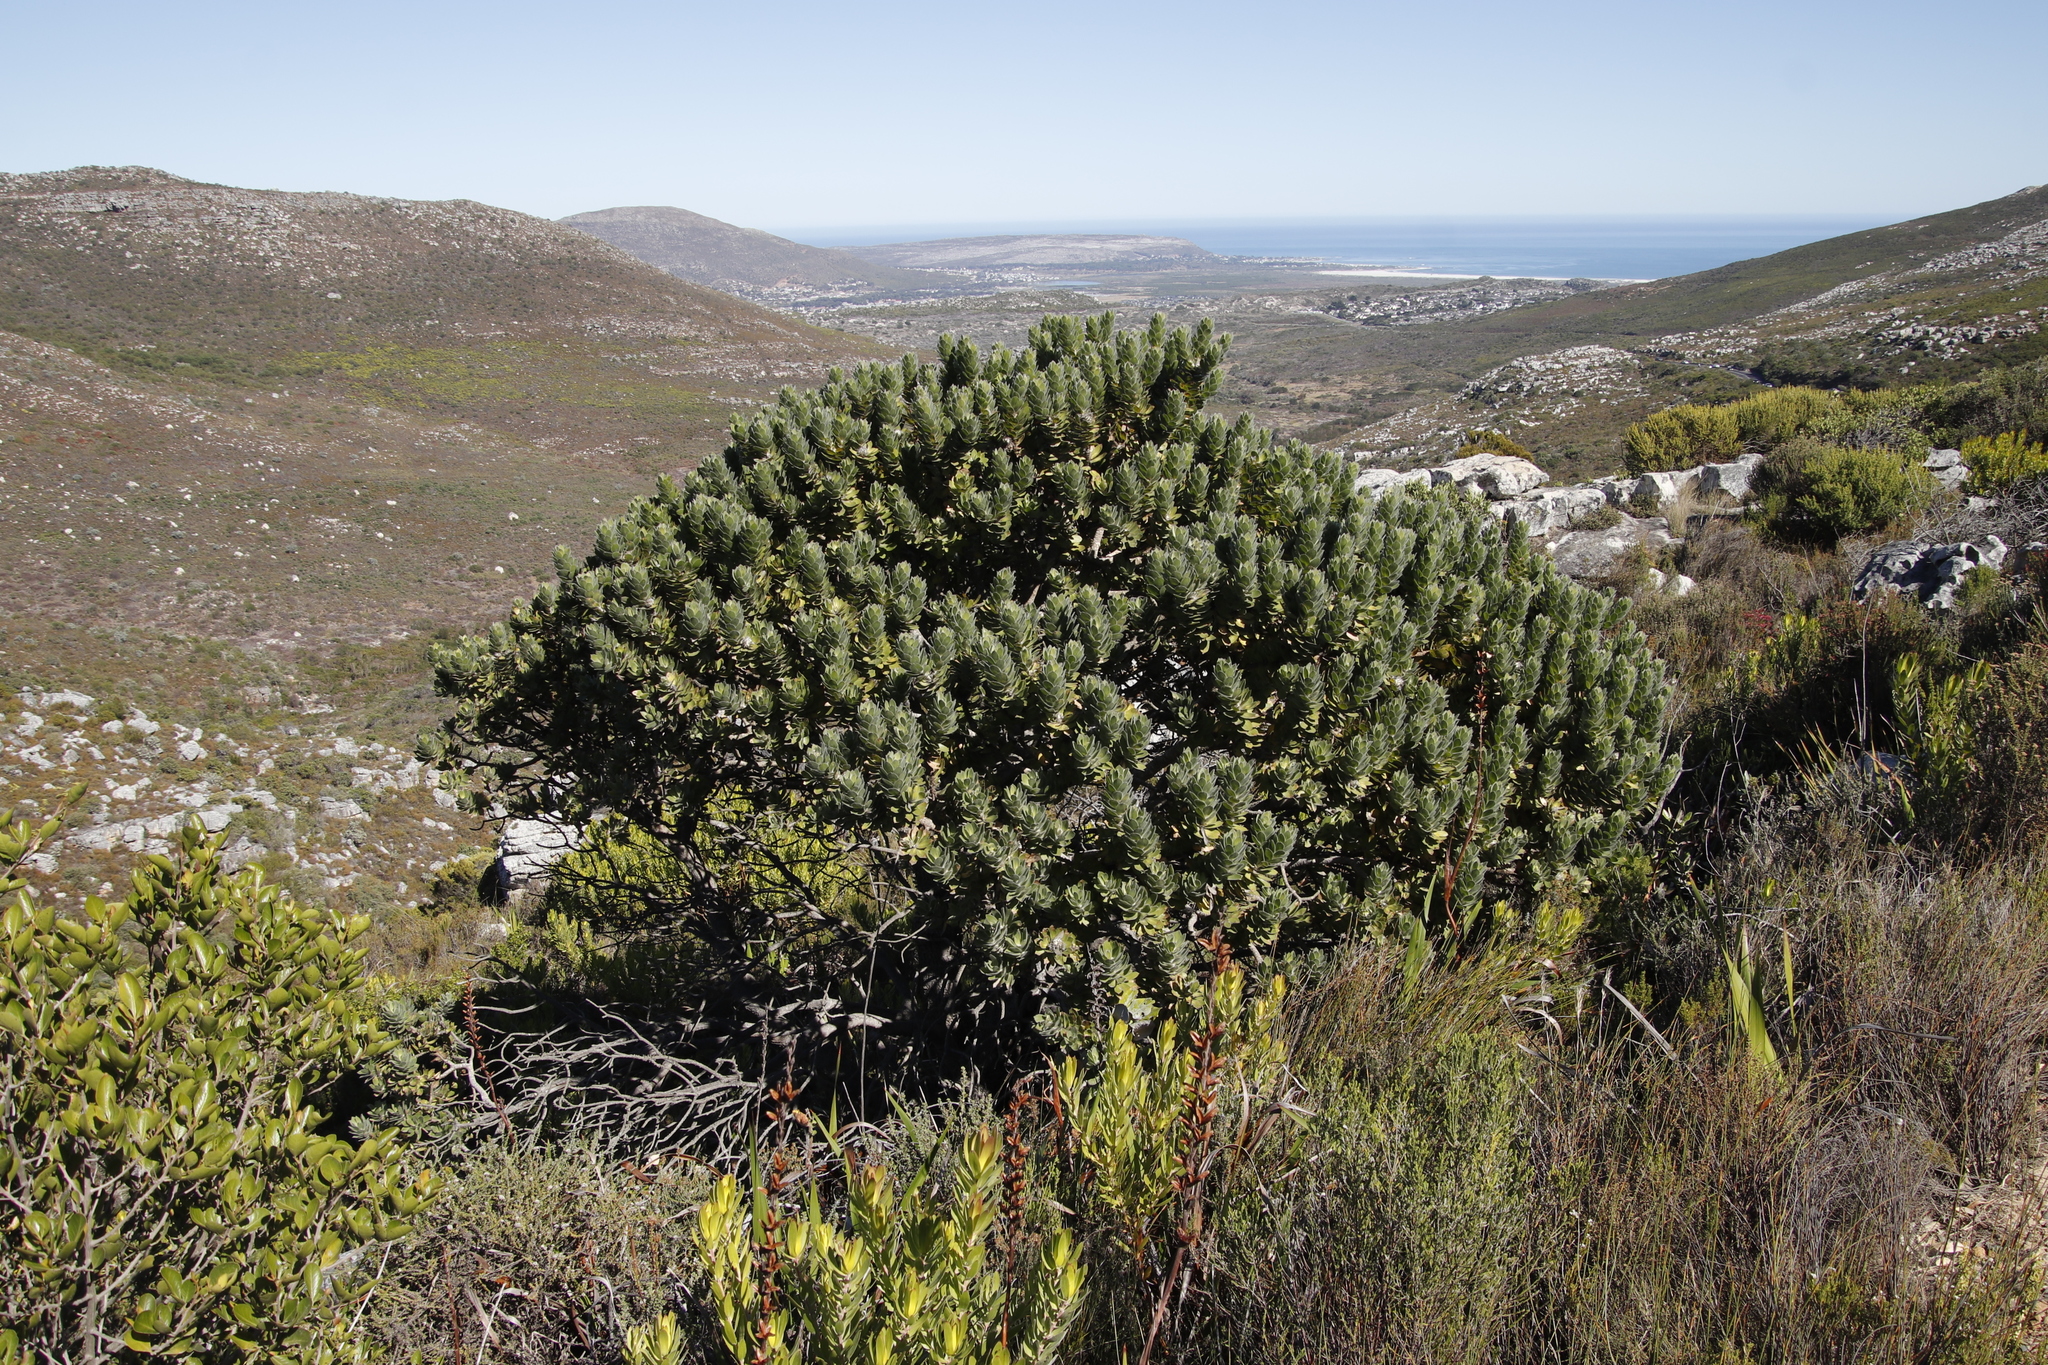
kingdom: Plantae
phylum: Tracheophyta
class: Magnoliopsida
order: Proteales
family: Proteaceae
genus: Mimetes
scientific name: Mimetes fimbriifolius
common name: Fringed bottlebrush
